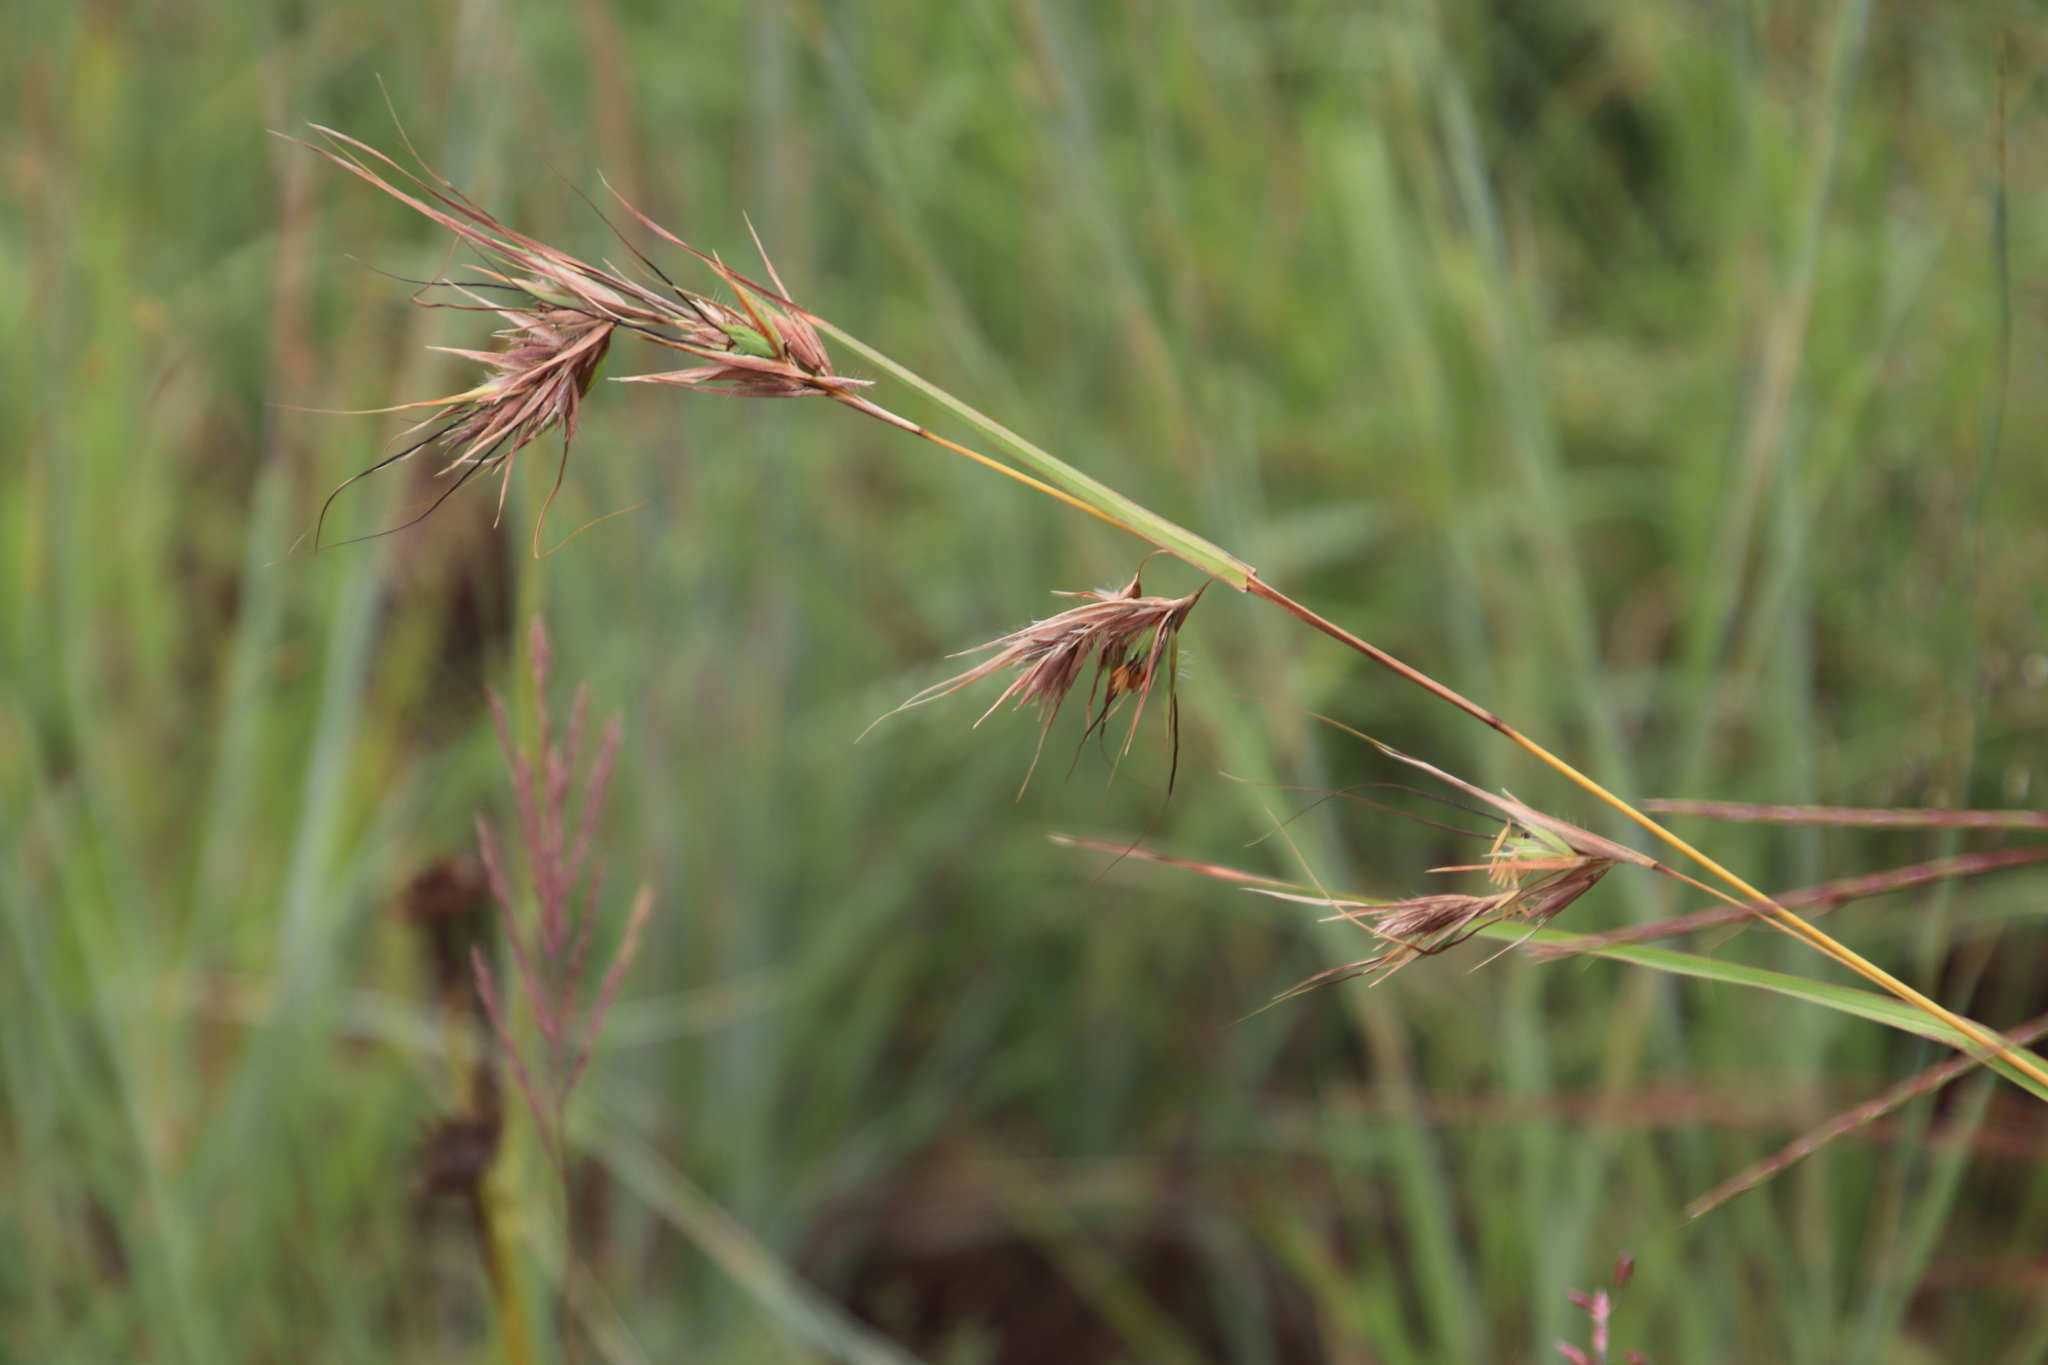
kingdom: Plantae
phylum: Tracheophyta
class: Liliopsida
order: Poales
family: Poaceae
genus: Themeda
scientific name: Themeda triandra
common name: Kangaroo grass
